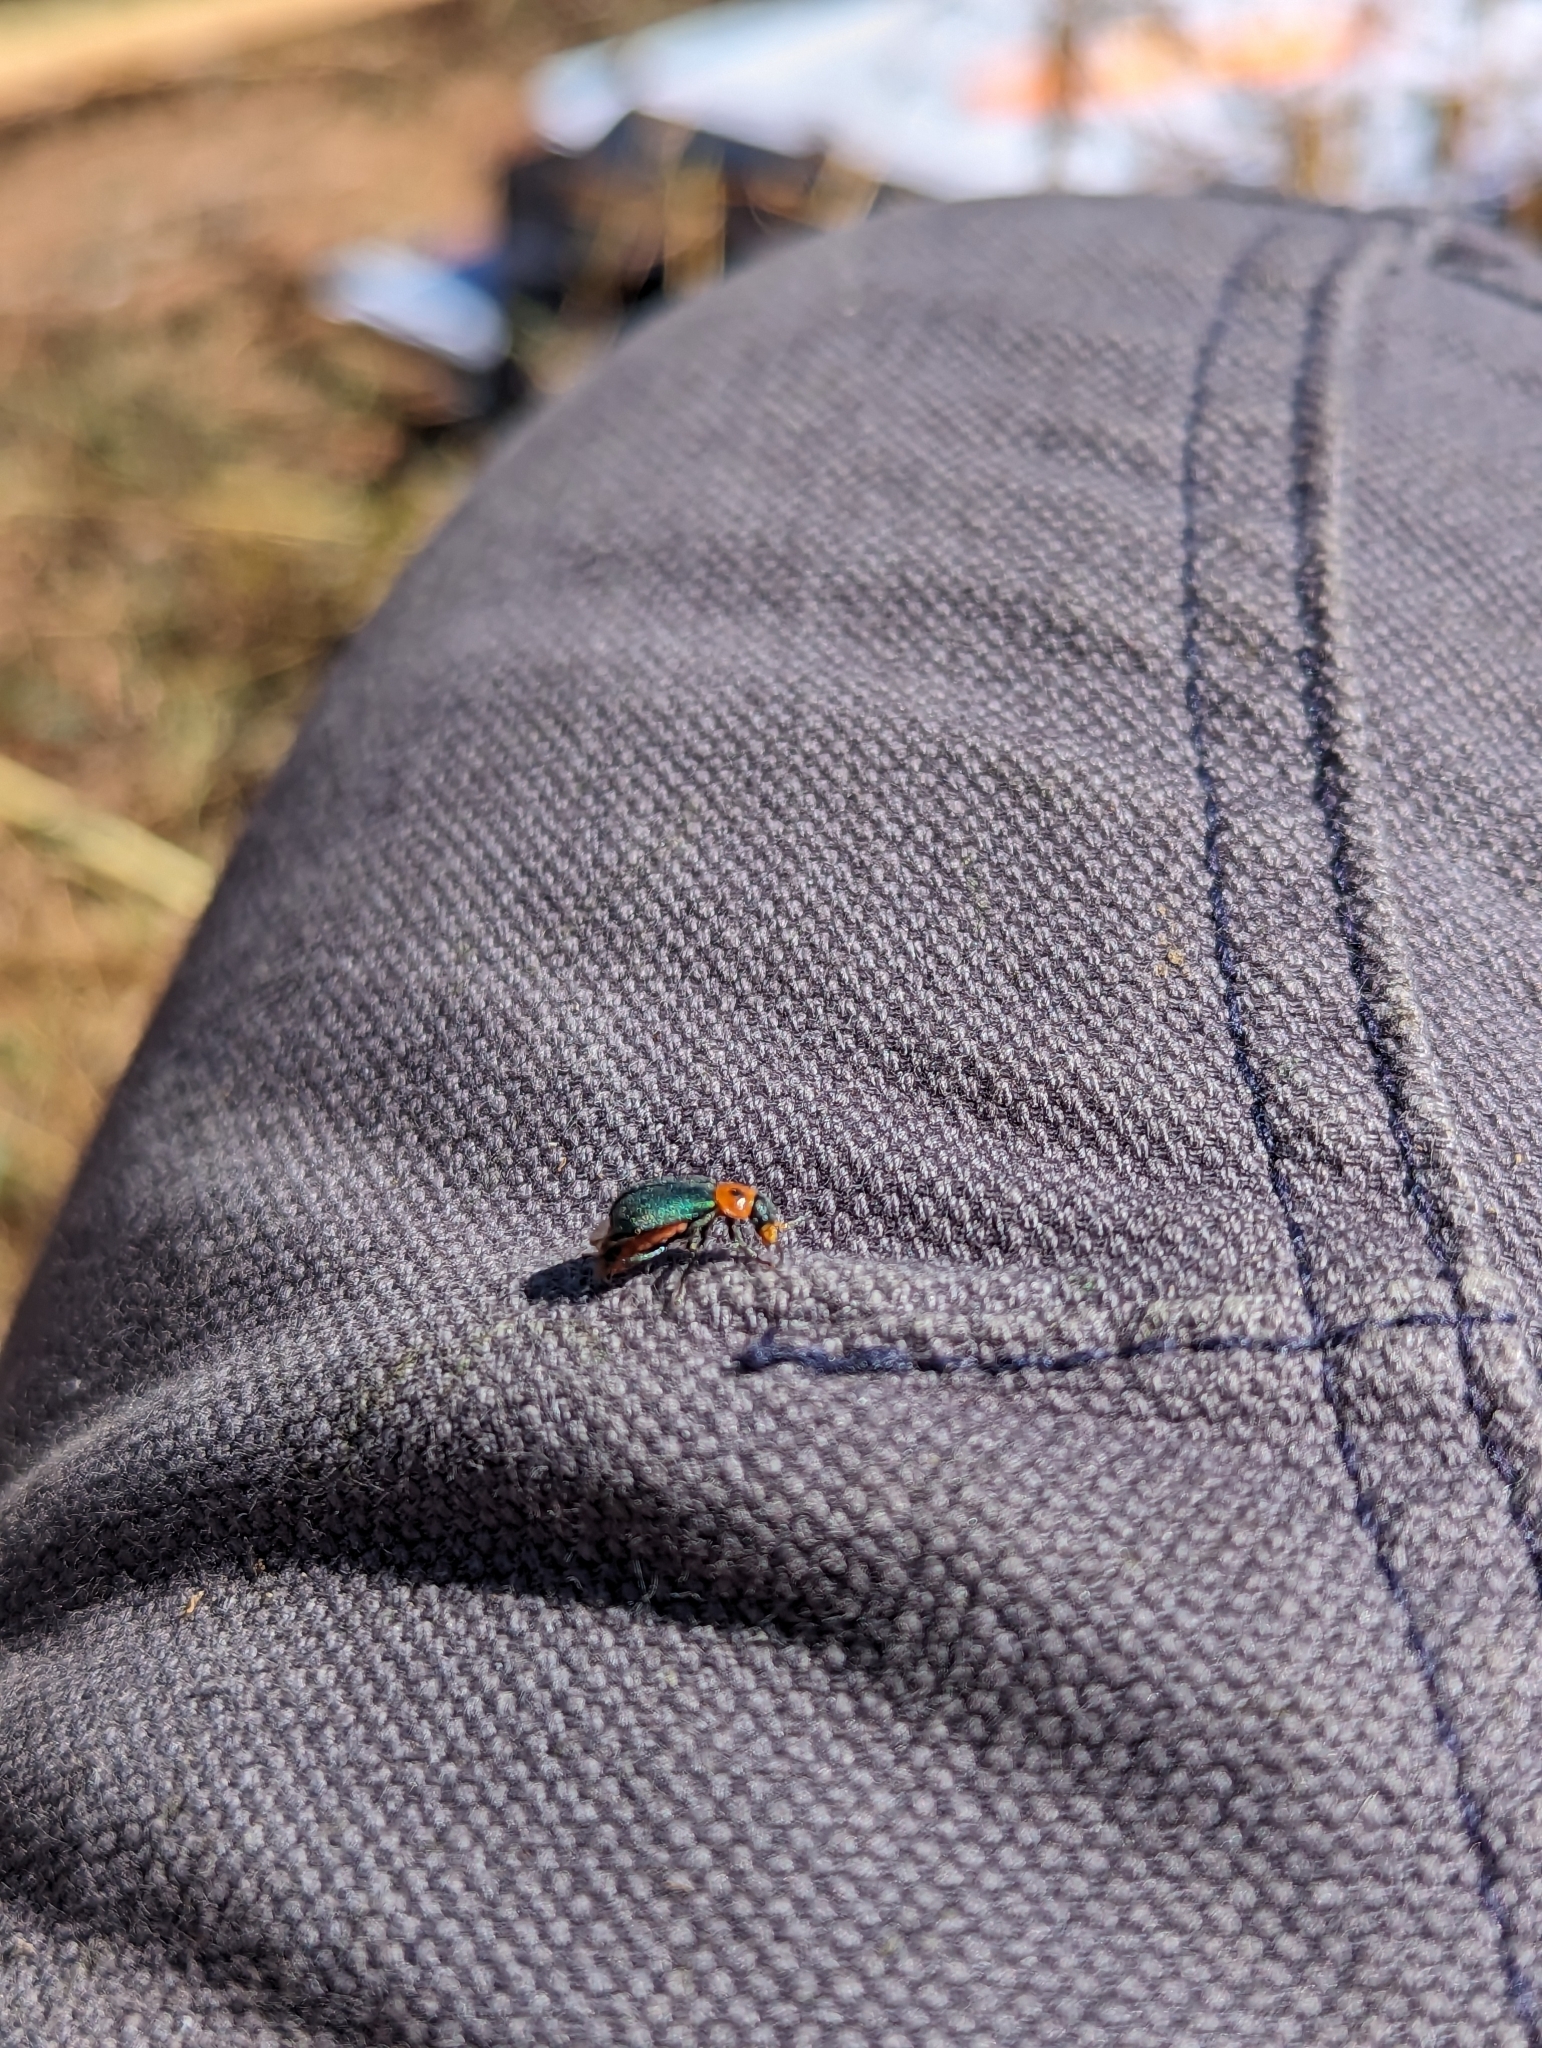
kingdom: Animalia
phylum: Arthropoda
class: Insecta
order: Coleoptera
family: Melyridae
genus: Collops
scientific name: Collops bipunctatus
